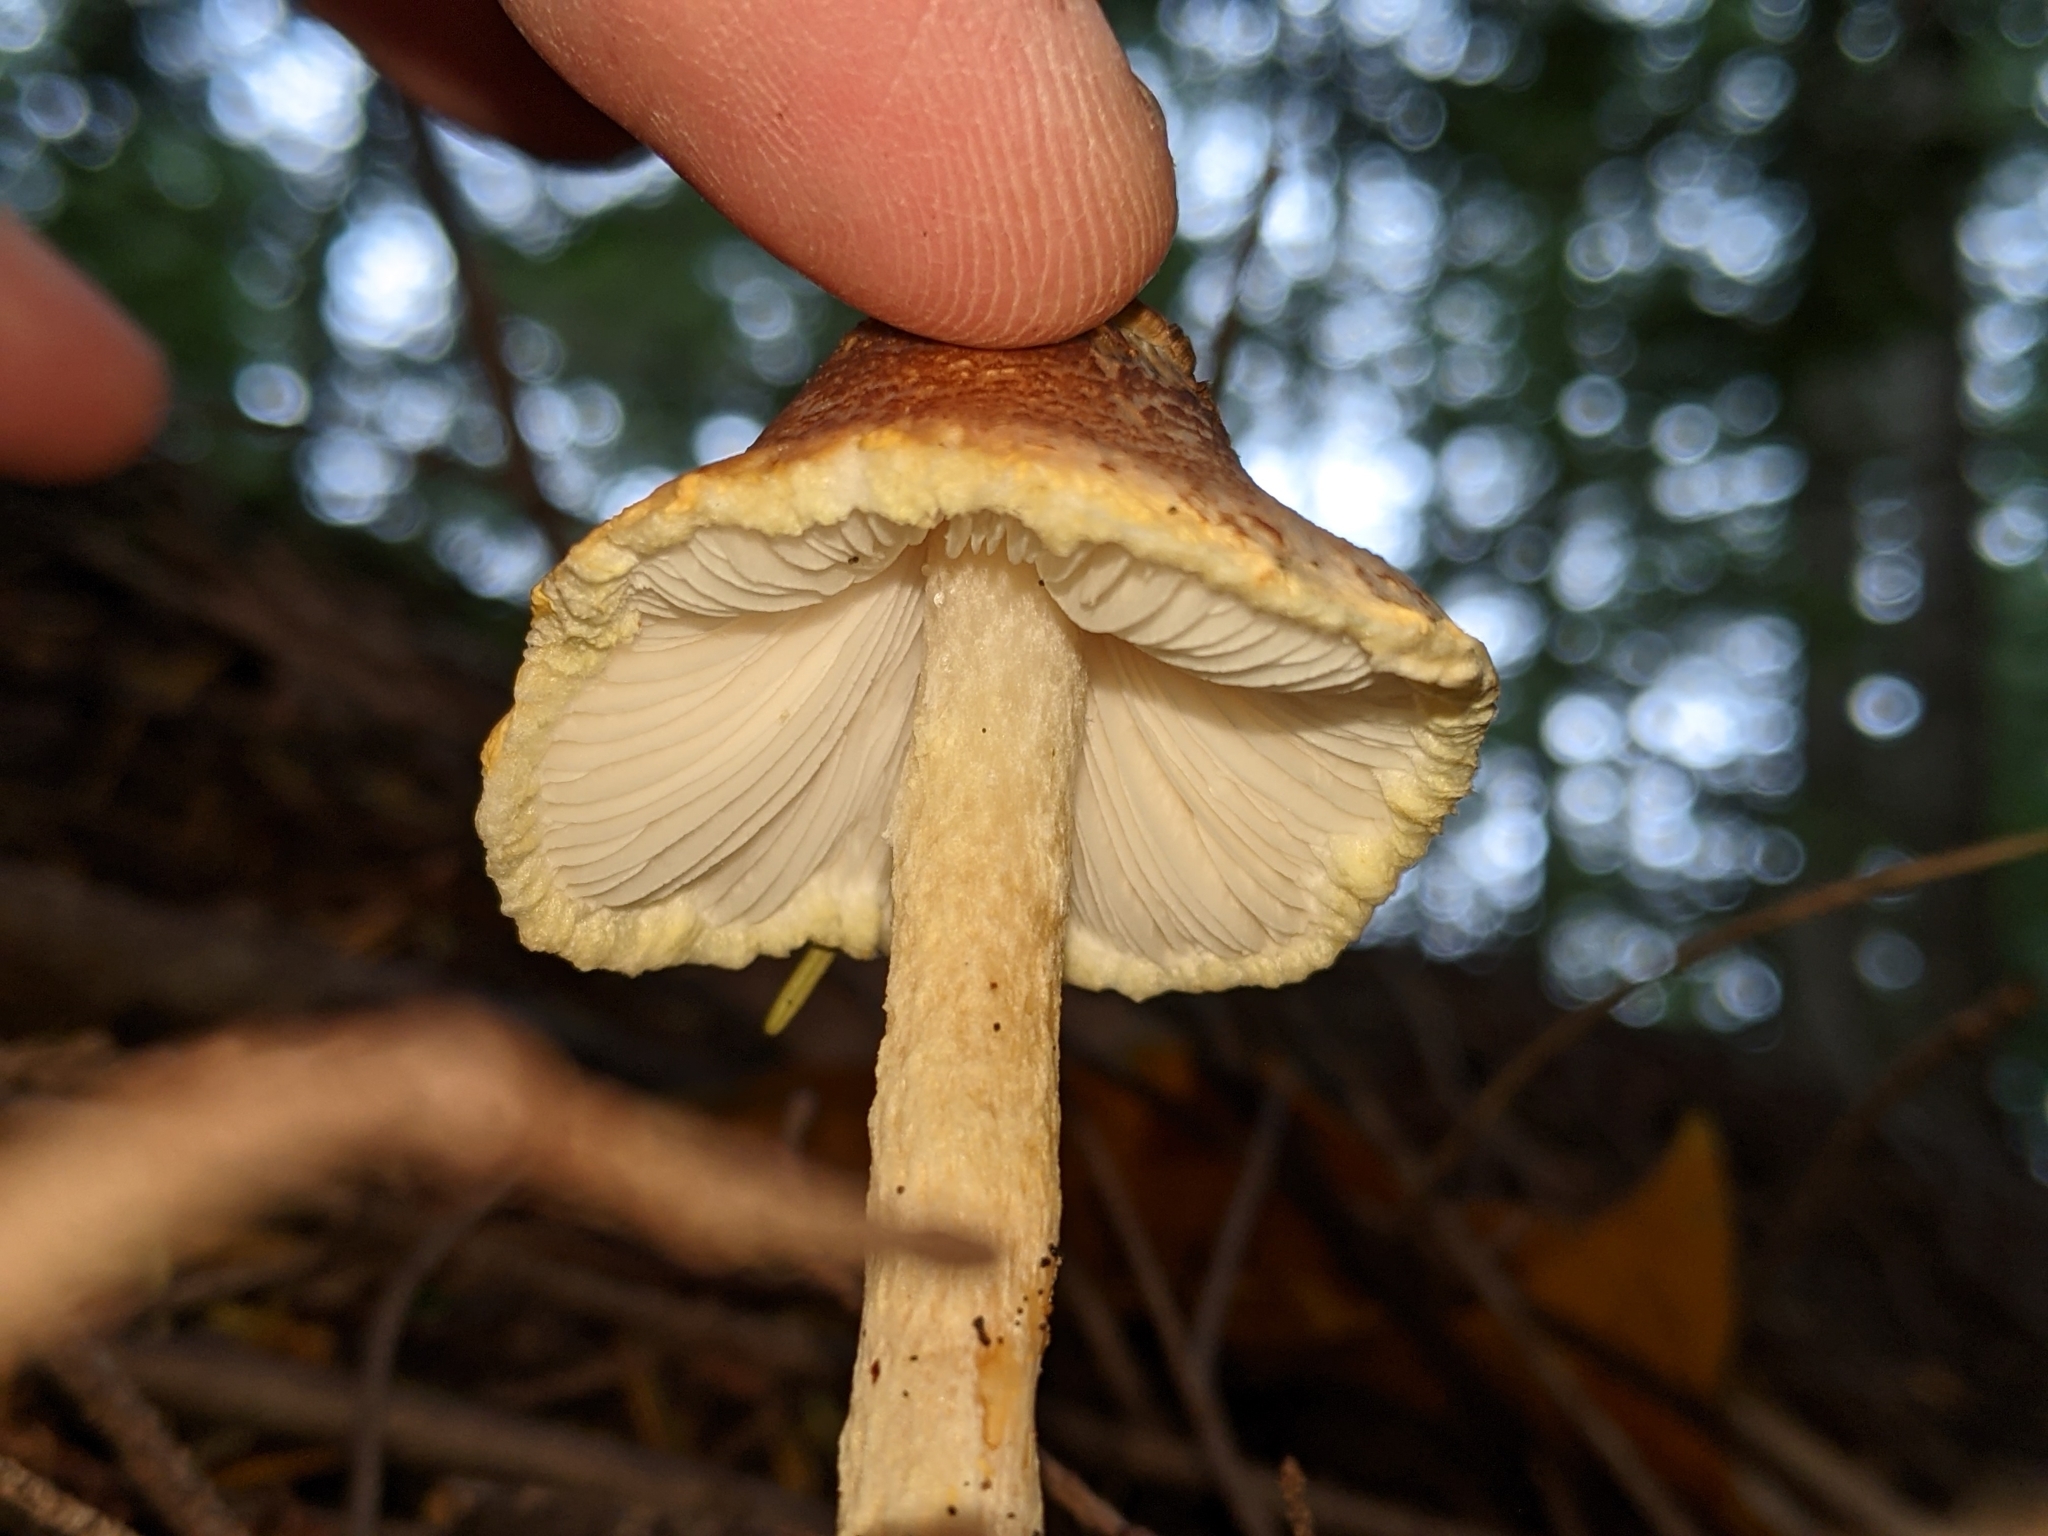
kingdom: Fungi
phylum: Basidiomycota
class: Agaricomycetes
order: Agaricales
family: Agaricaceae
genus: Lepiota
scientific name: Lepiota magnispora
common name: Yellowfoot dapperling
